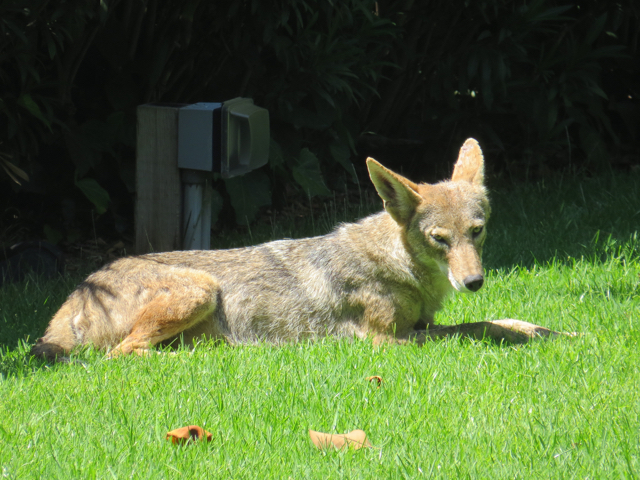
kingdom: Animalia
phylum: Chordata
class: Mammalia
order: Carnivora
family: Canidae
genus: Canis
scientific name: Canis latrans
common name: Coyote
